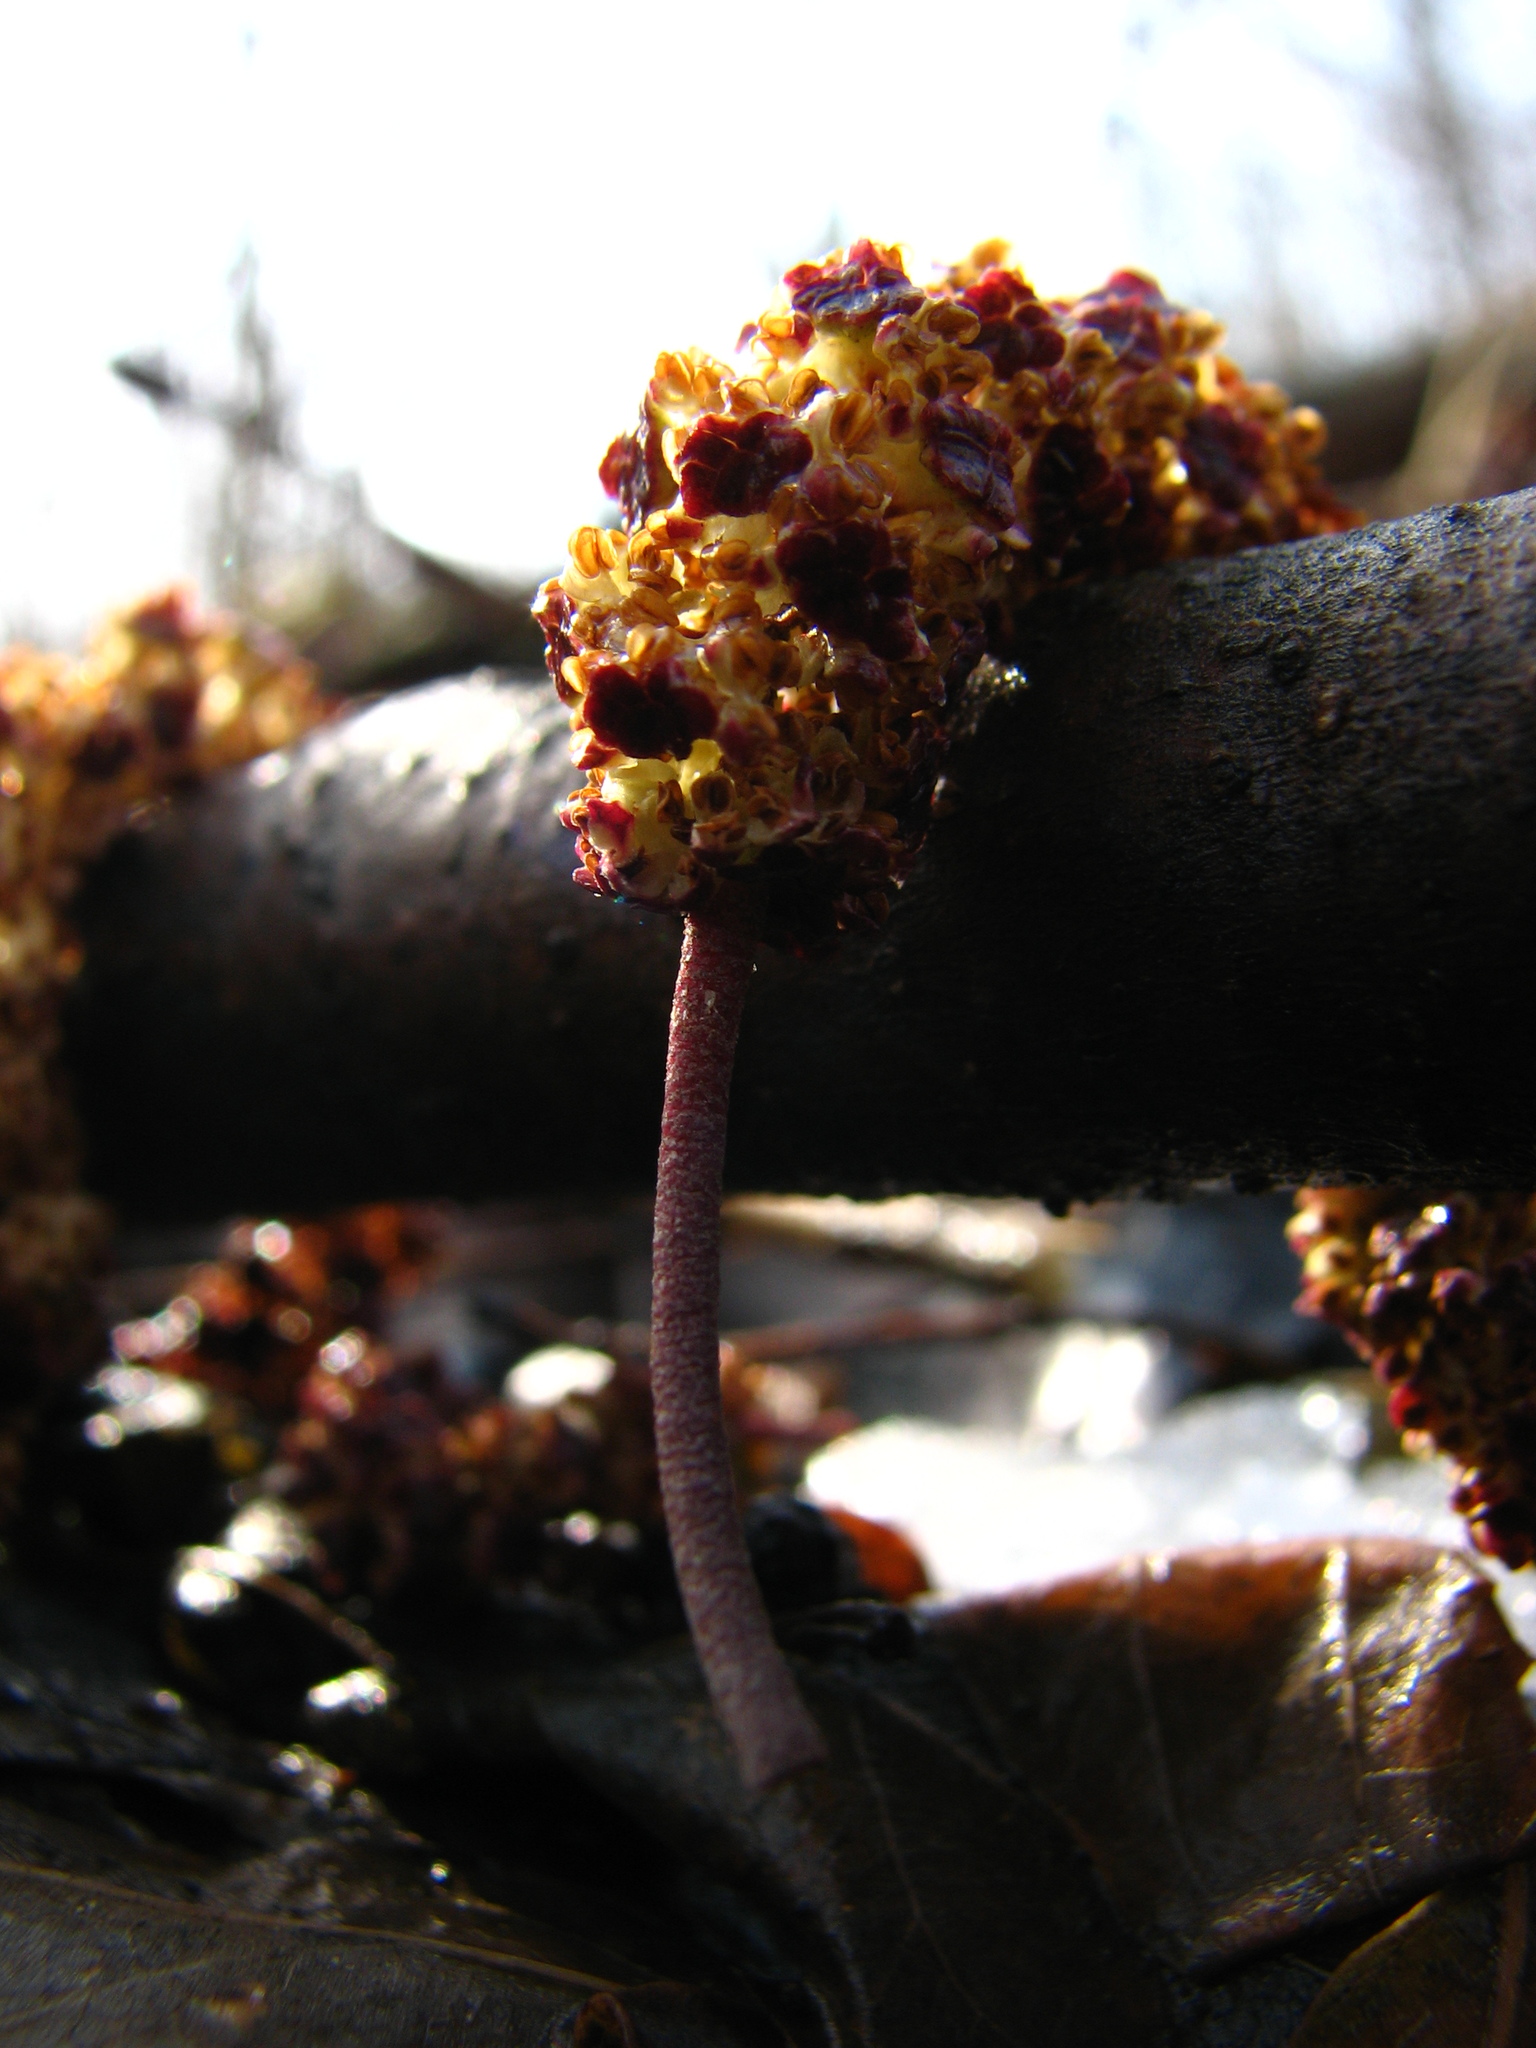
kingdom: Plantae
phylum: Tracheophyta
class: Magnoliopsida
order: Fagales
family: Betulaceae
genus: Alnus
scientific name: Alnus glutinosa
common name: Black alder
